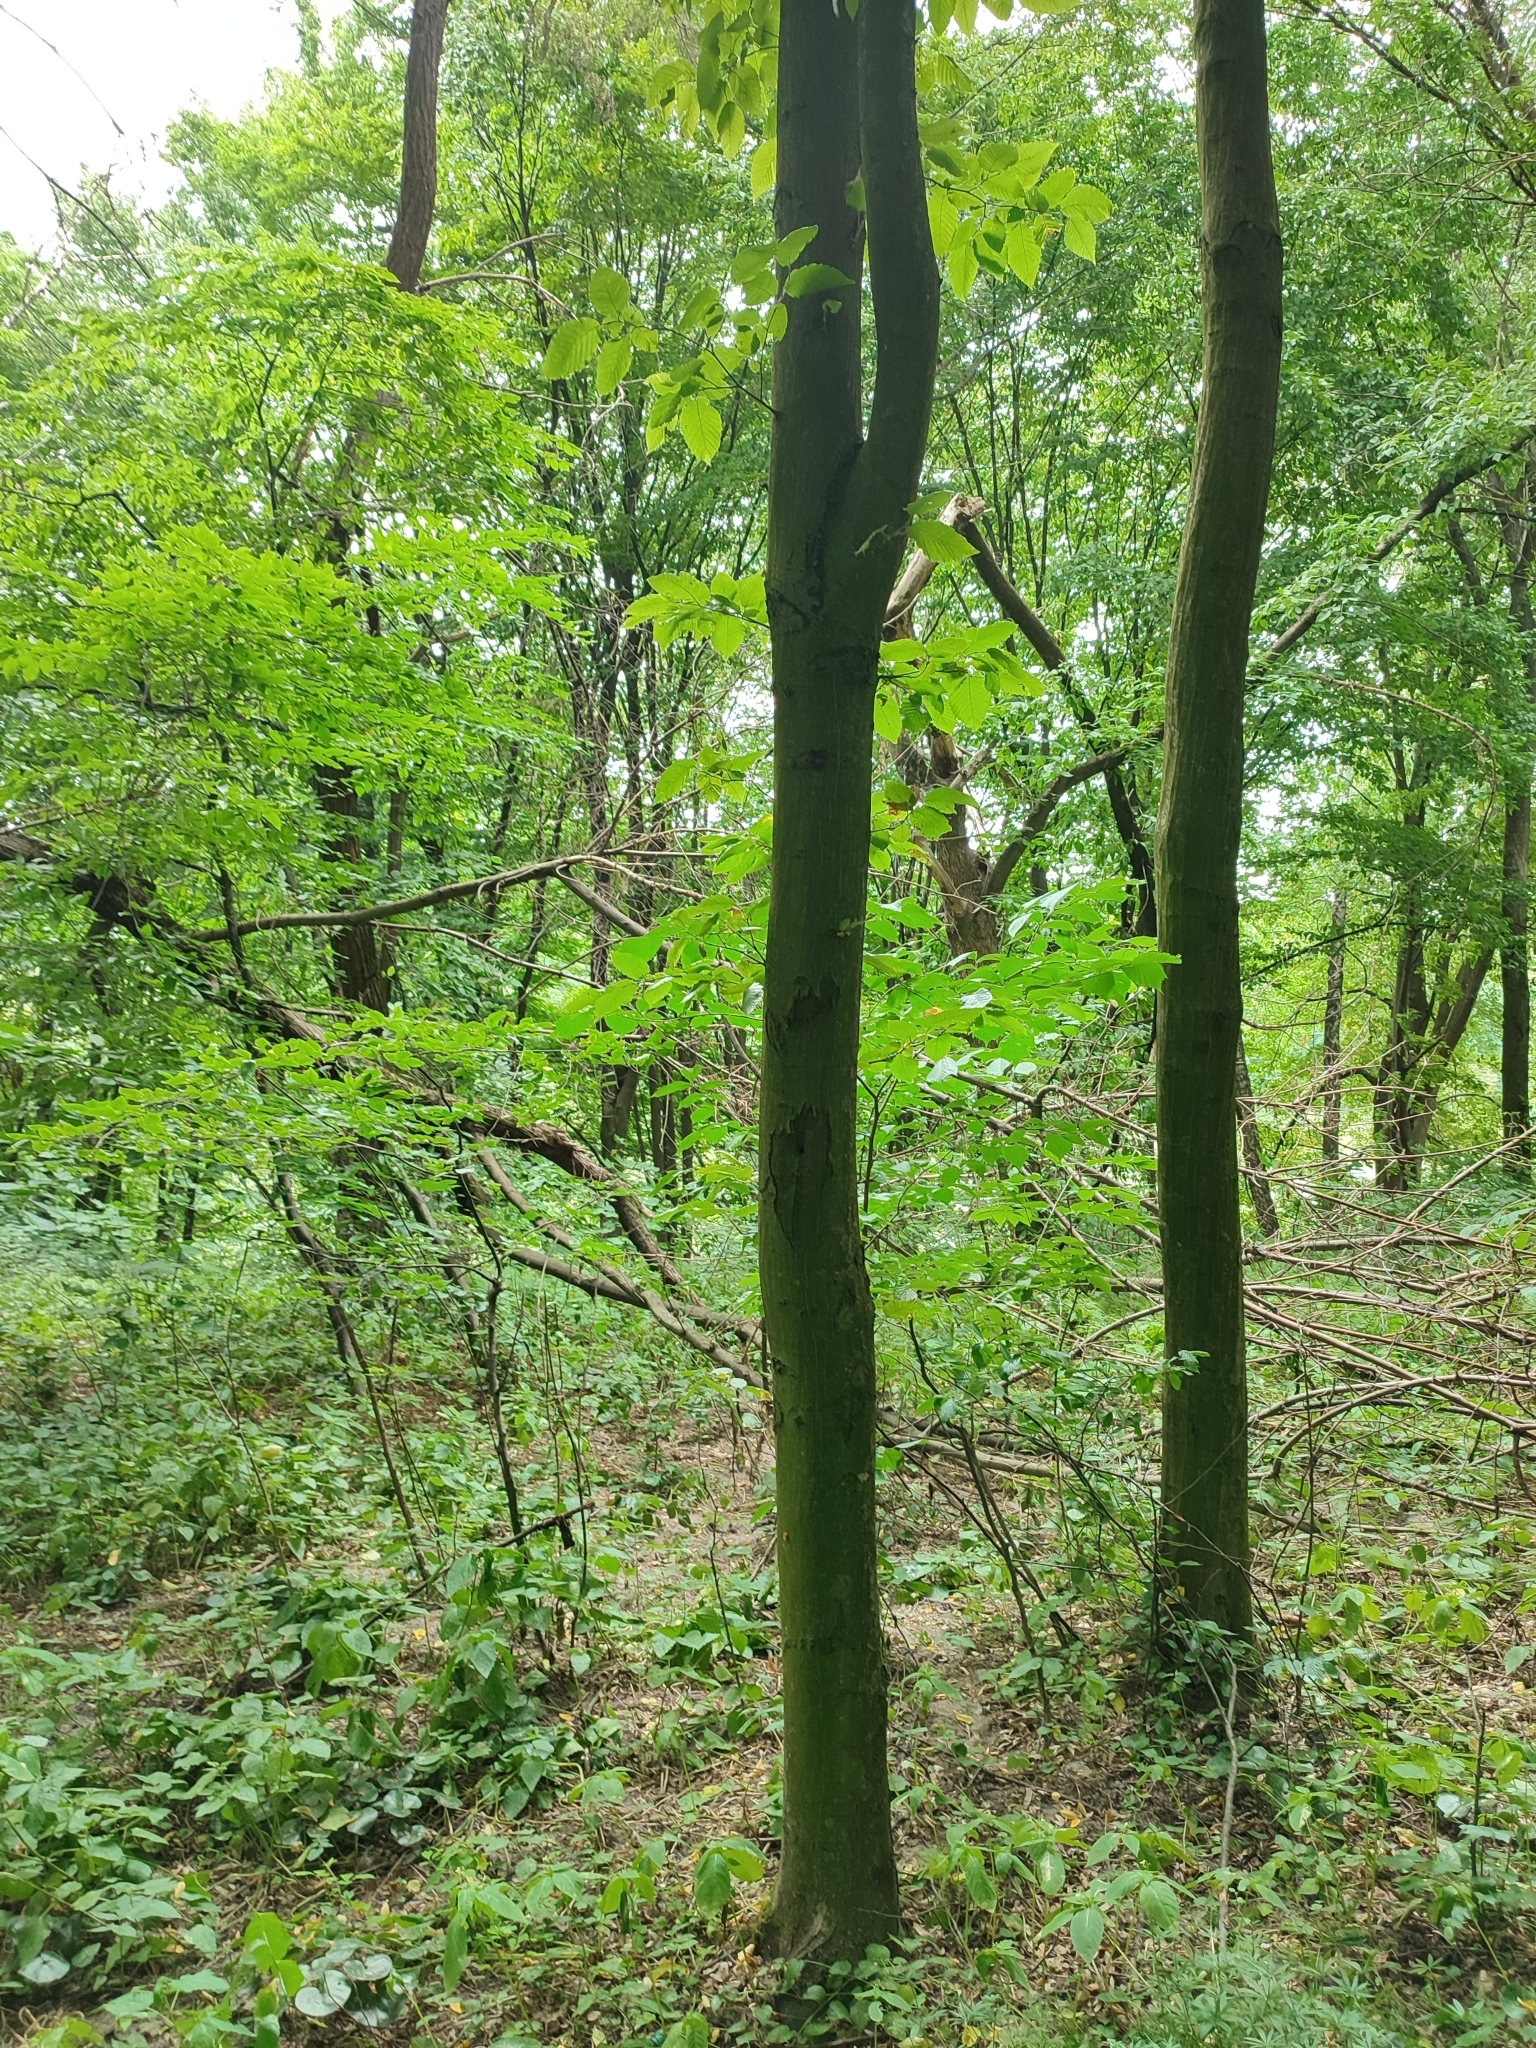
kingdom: Plantae
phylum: Tracheophyta
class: Magnoliopsida
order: Fagales
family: Betulaceae
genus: Carpinus
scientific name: Carpinus betulus
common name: Hornbeam
